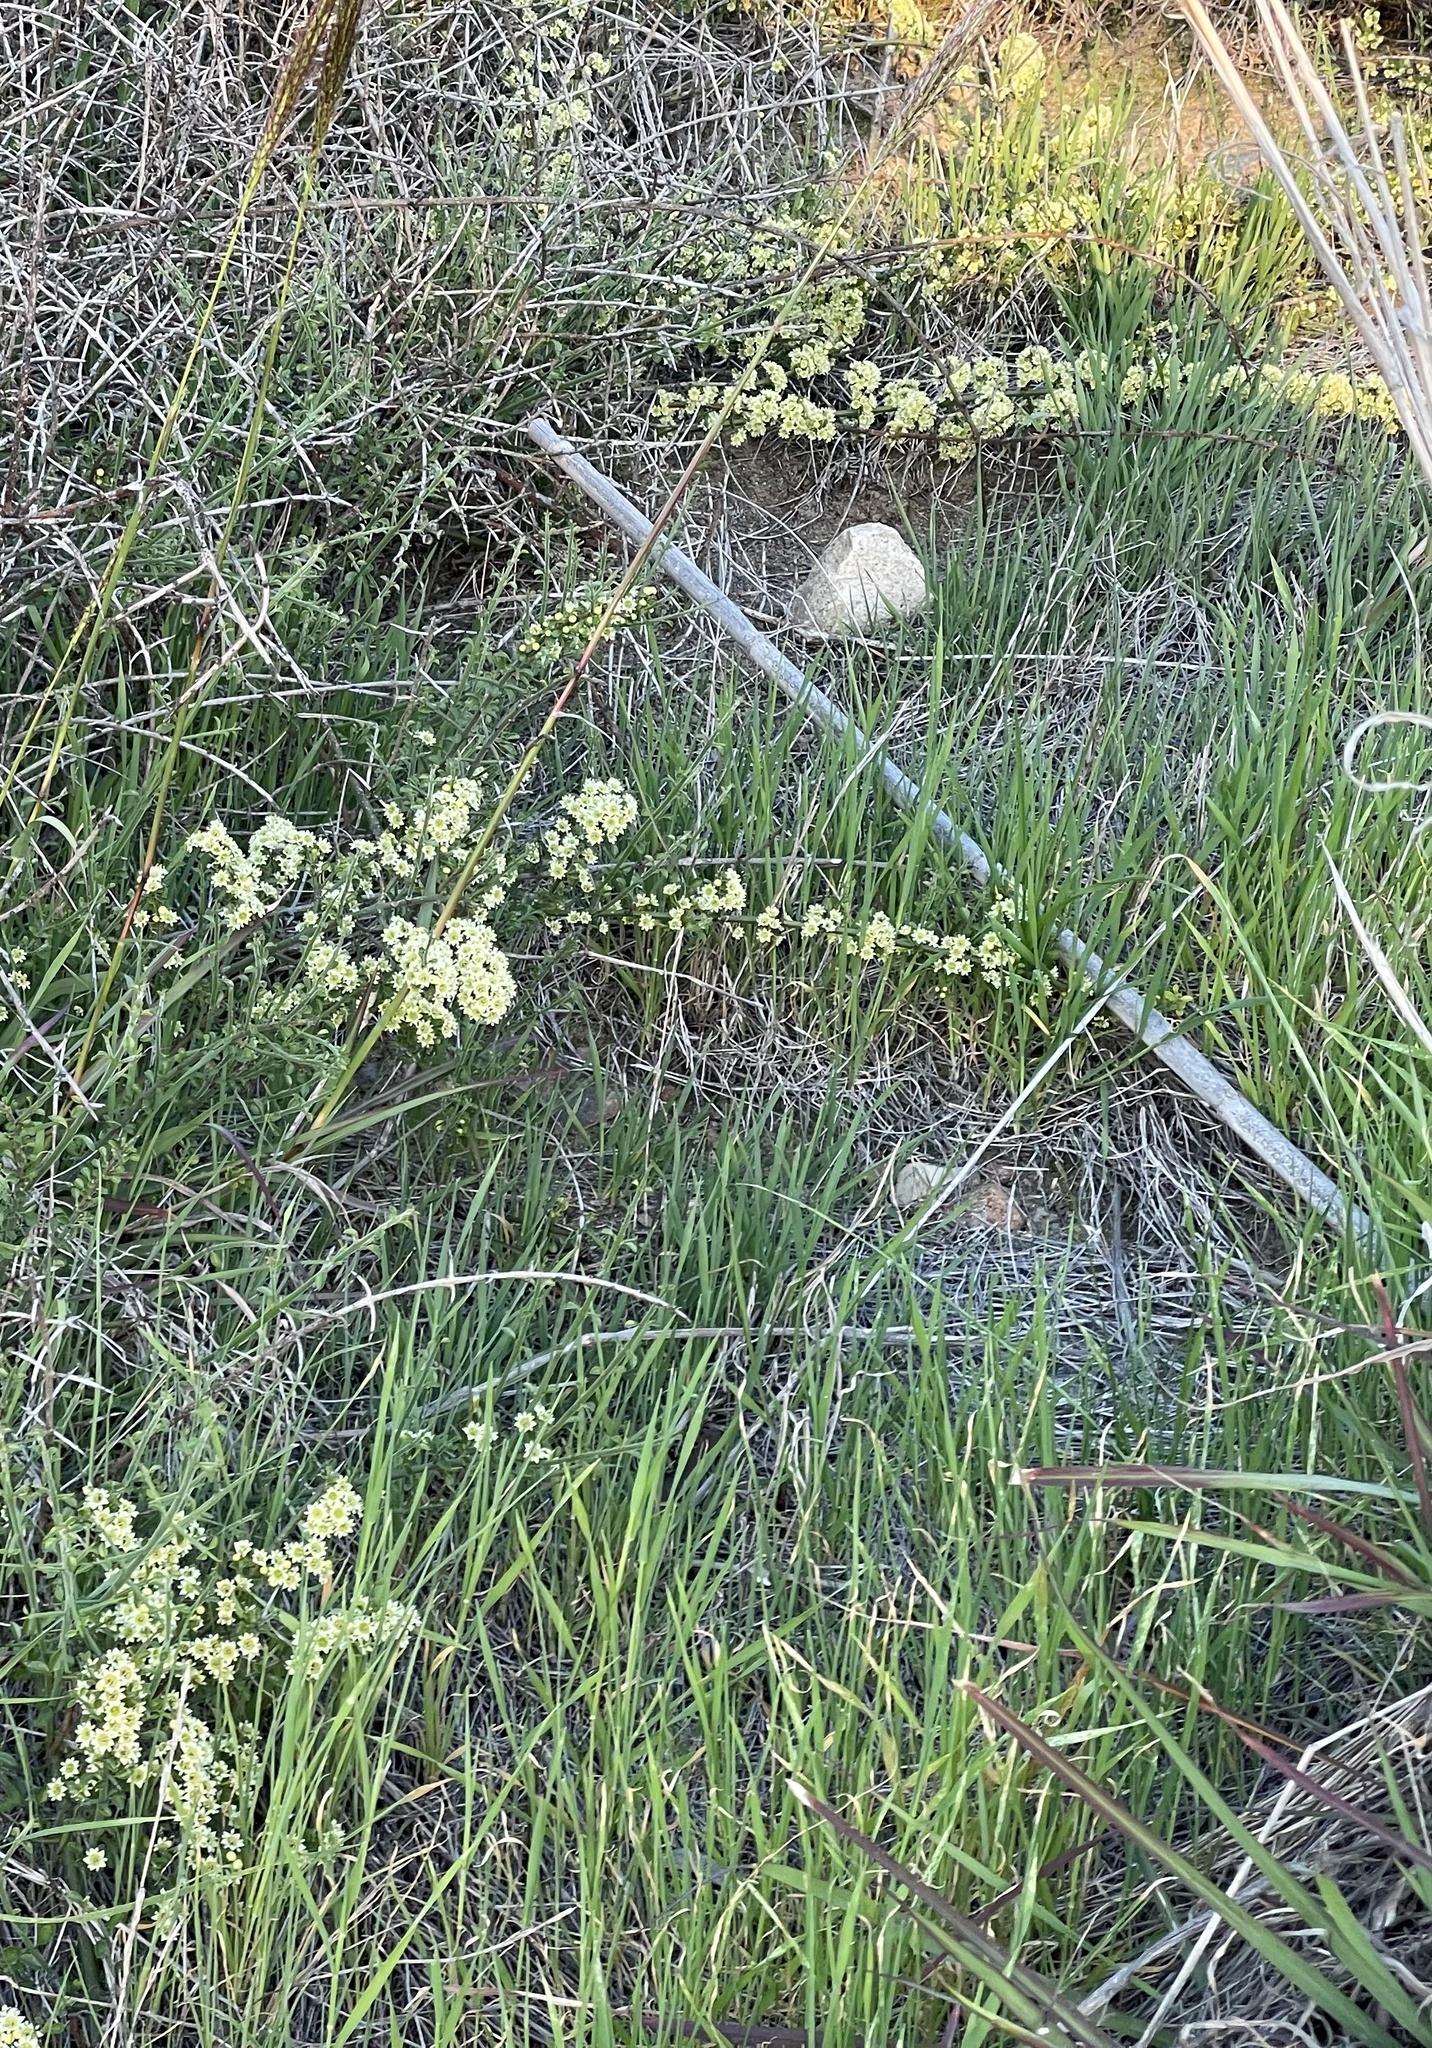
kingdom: Plantae
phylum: Tracheophyta
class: Magnoliopsida
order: Rosales
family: Rhamnaceae
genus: Adolphia
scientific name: Adolphia californica
